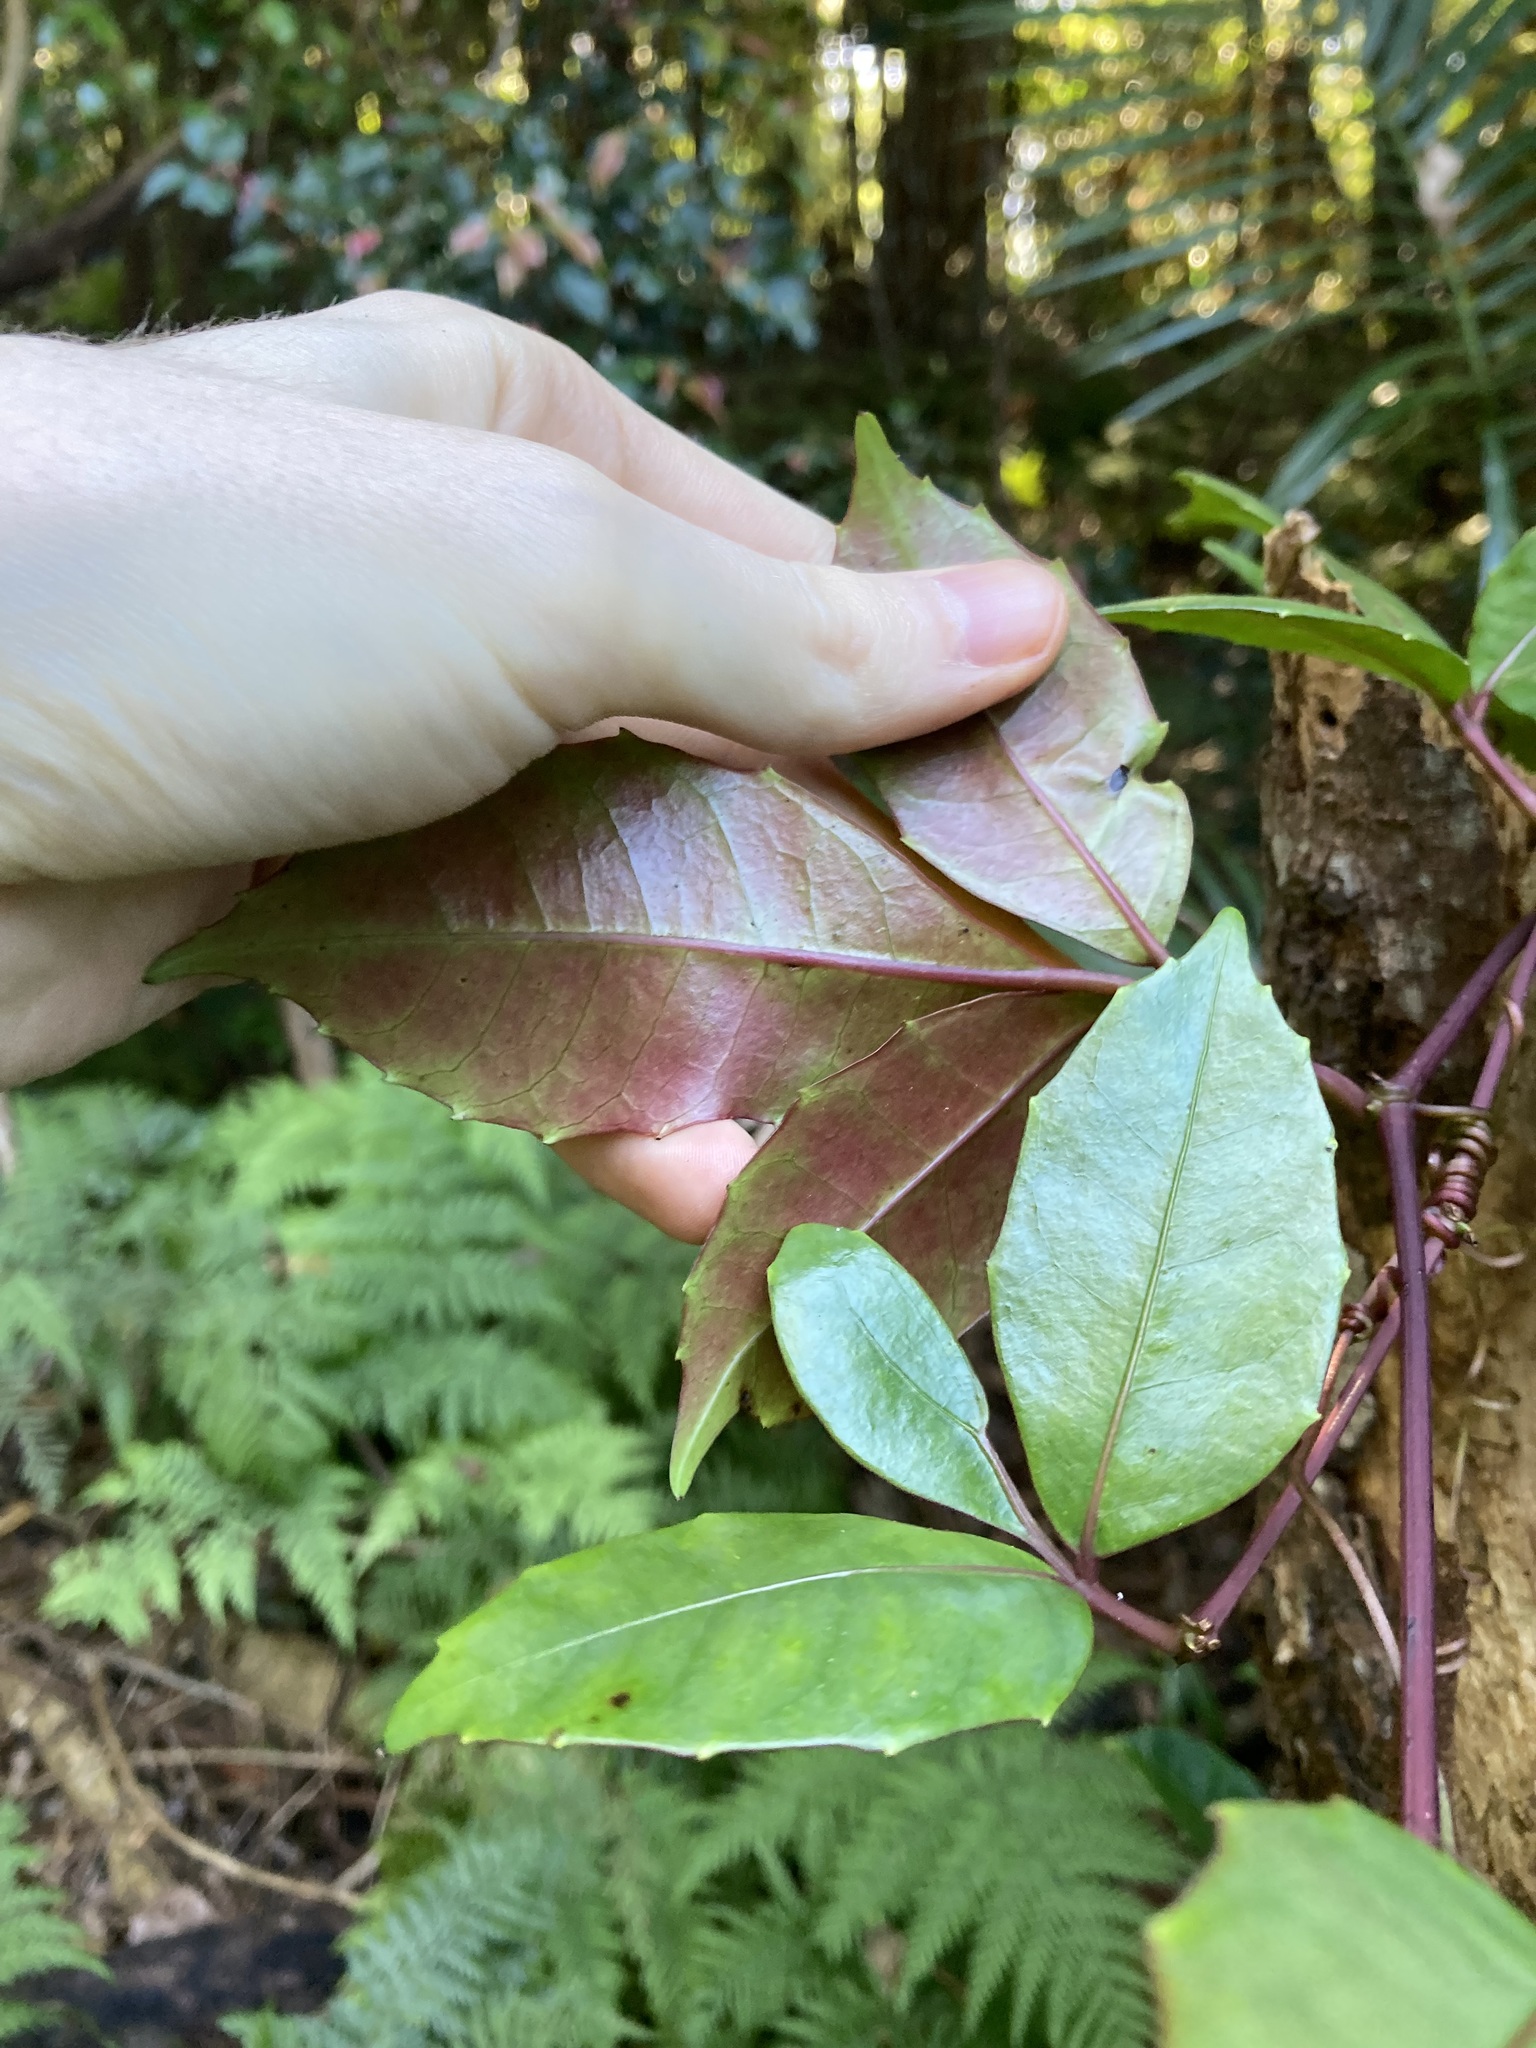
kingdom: Plantae
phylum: Tracheophyta
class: Magnoliopsida
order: Vitales
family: Vitaceae
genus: Tetrastigma
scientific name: Tetrastigma nitens
